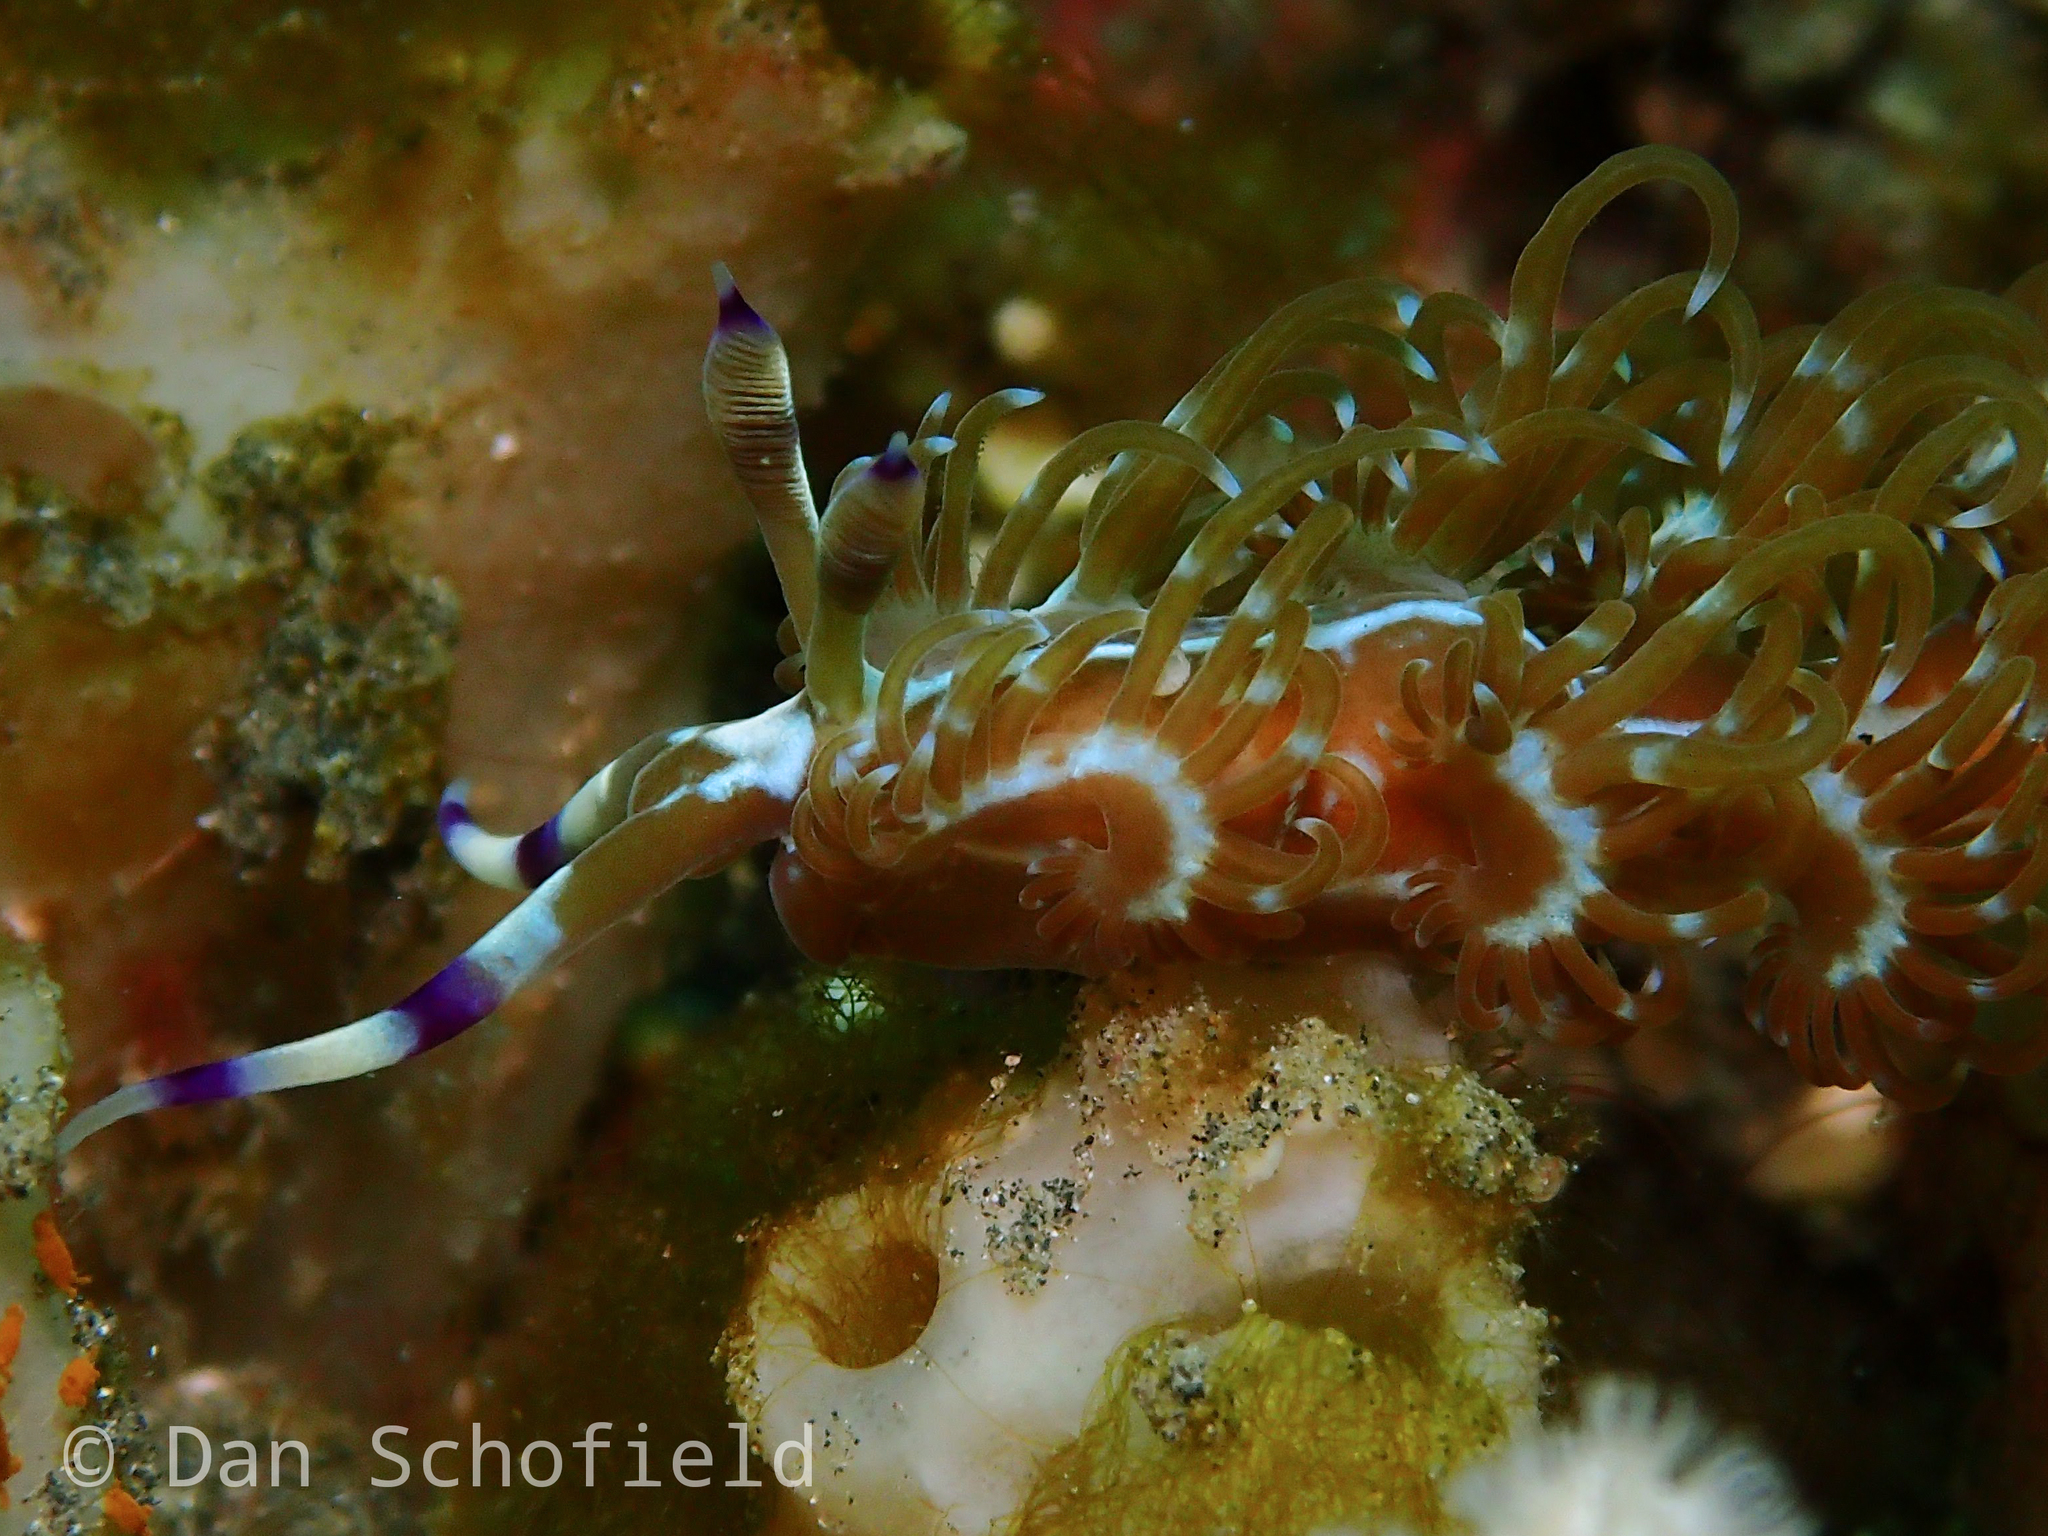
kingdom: Animalia
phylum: Mollusca
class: Gastropoda
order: Nudibranchia
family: Facelinidae
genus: Pteraeolidia
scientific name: Pteraeolidia semperi
